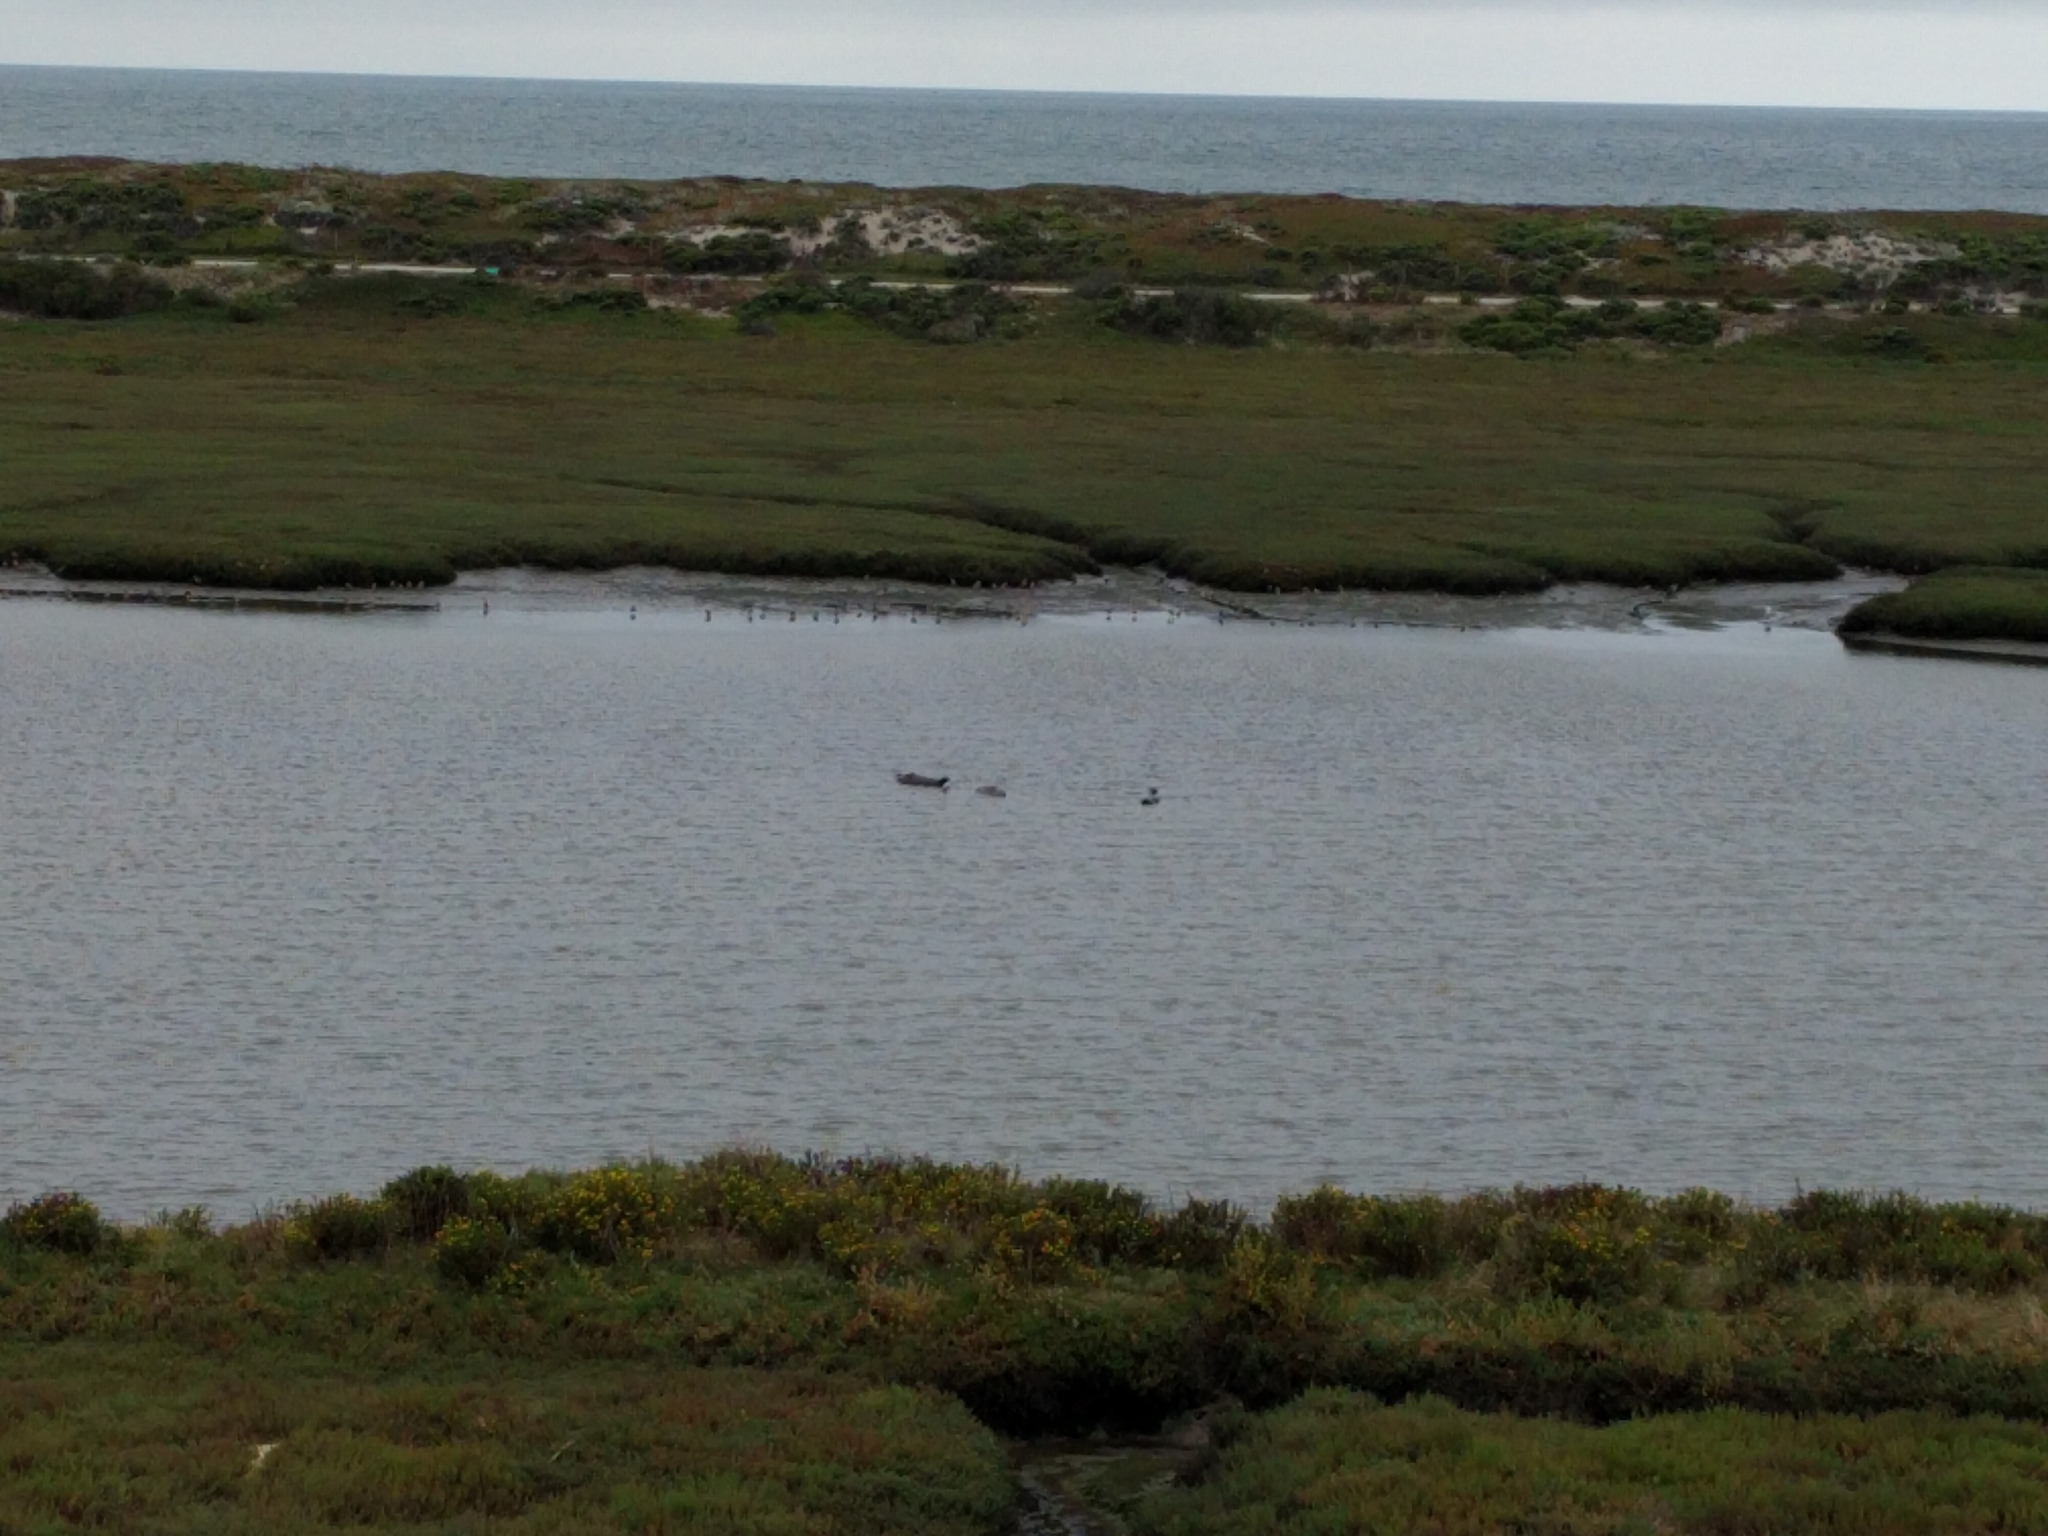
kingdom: Animalia
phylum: Chordata
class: Mammalia
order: Carnivora
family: Phocidae
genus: Phoca
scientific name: Phoca vitulina
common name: Harbor seal
